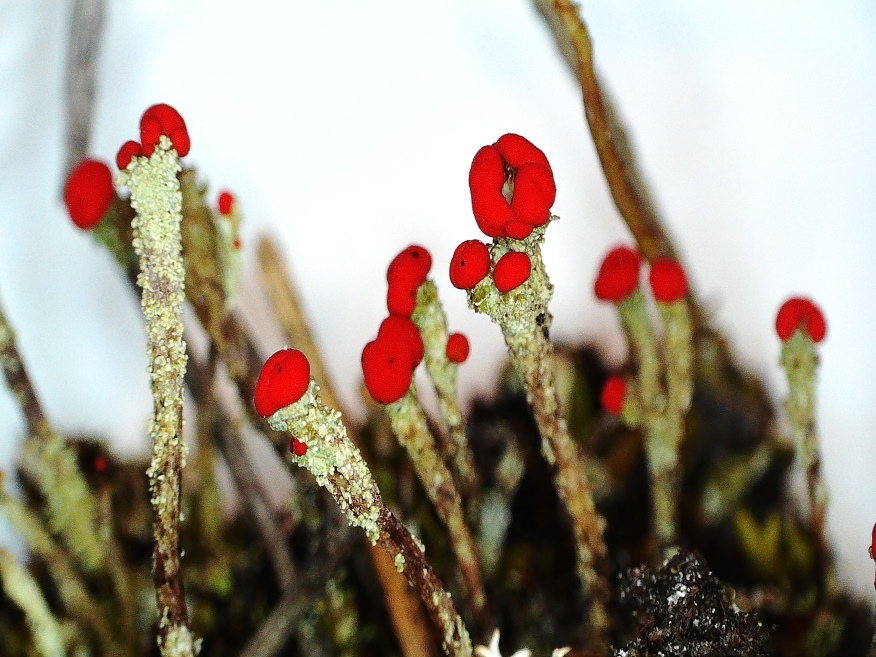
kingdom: Fungi
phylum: Ascomycota
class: Lecanoromycetes
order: Lecanorales
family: Cladoniaceae
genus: Cladonia
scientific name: Cladonia floerkeana
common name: Gritty british soldiers lichen
